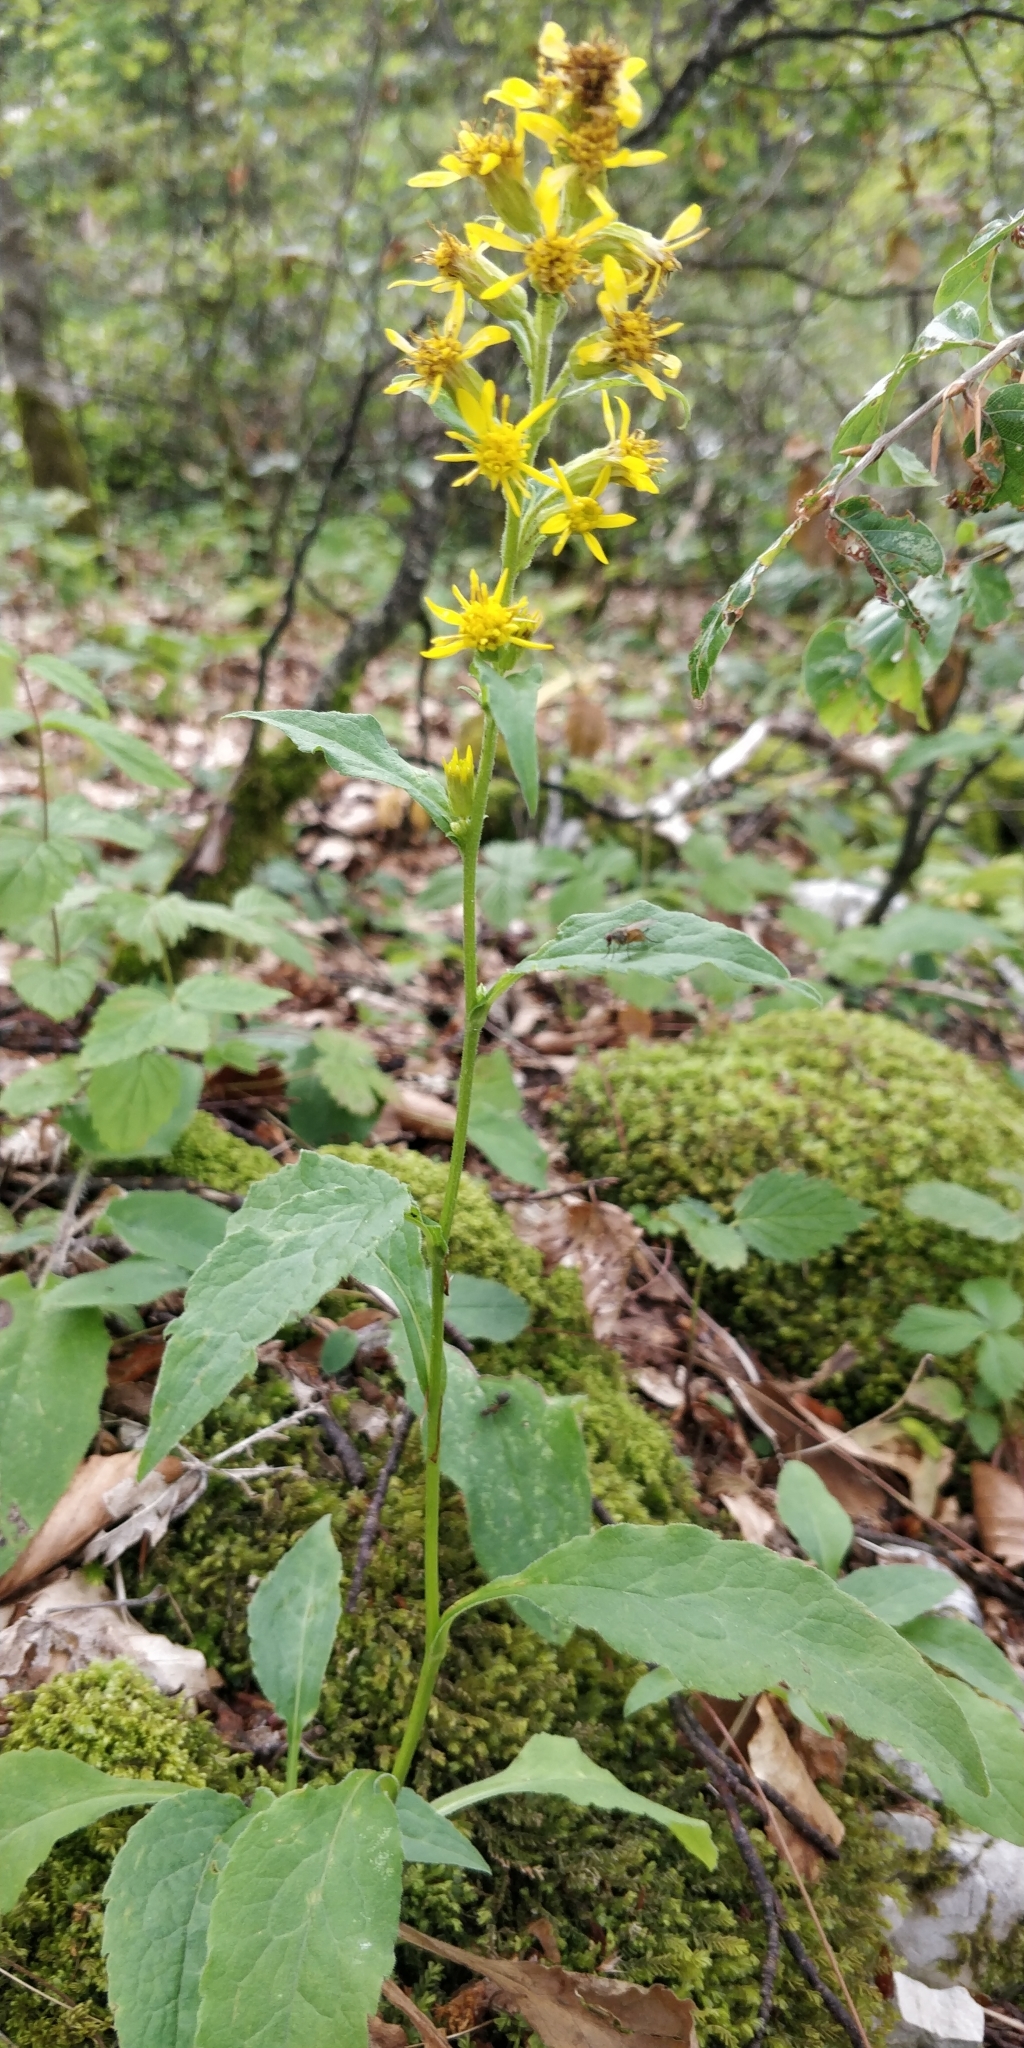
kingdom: Plantae
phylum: Tracheophyta
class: Magnoliopsida
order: Asterales
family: Asteraceae
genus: Solidago
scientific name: Solidago virgaurea
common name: Goldenrod
